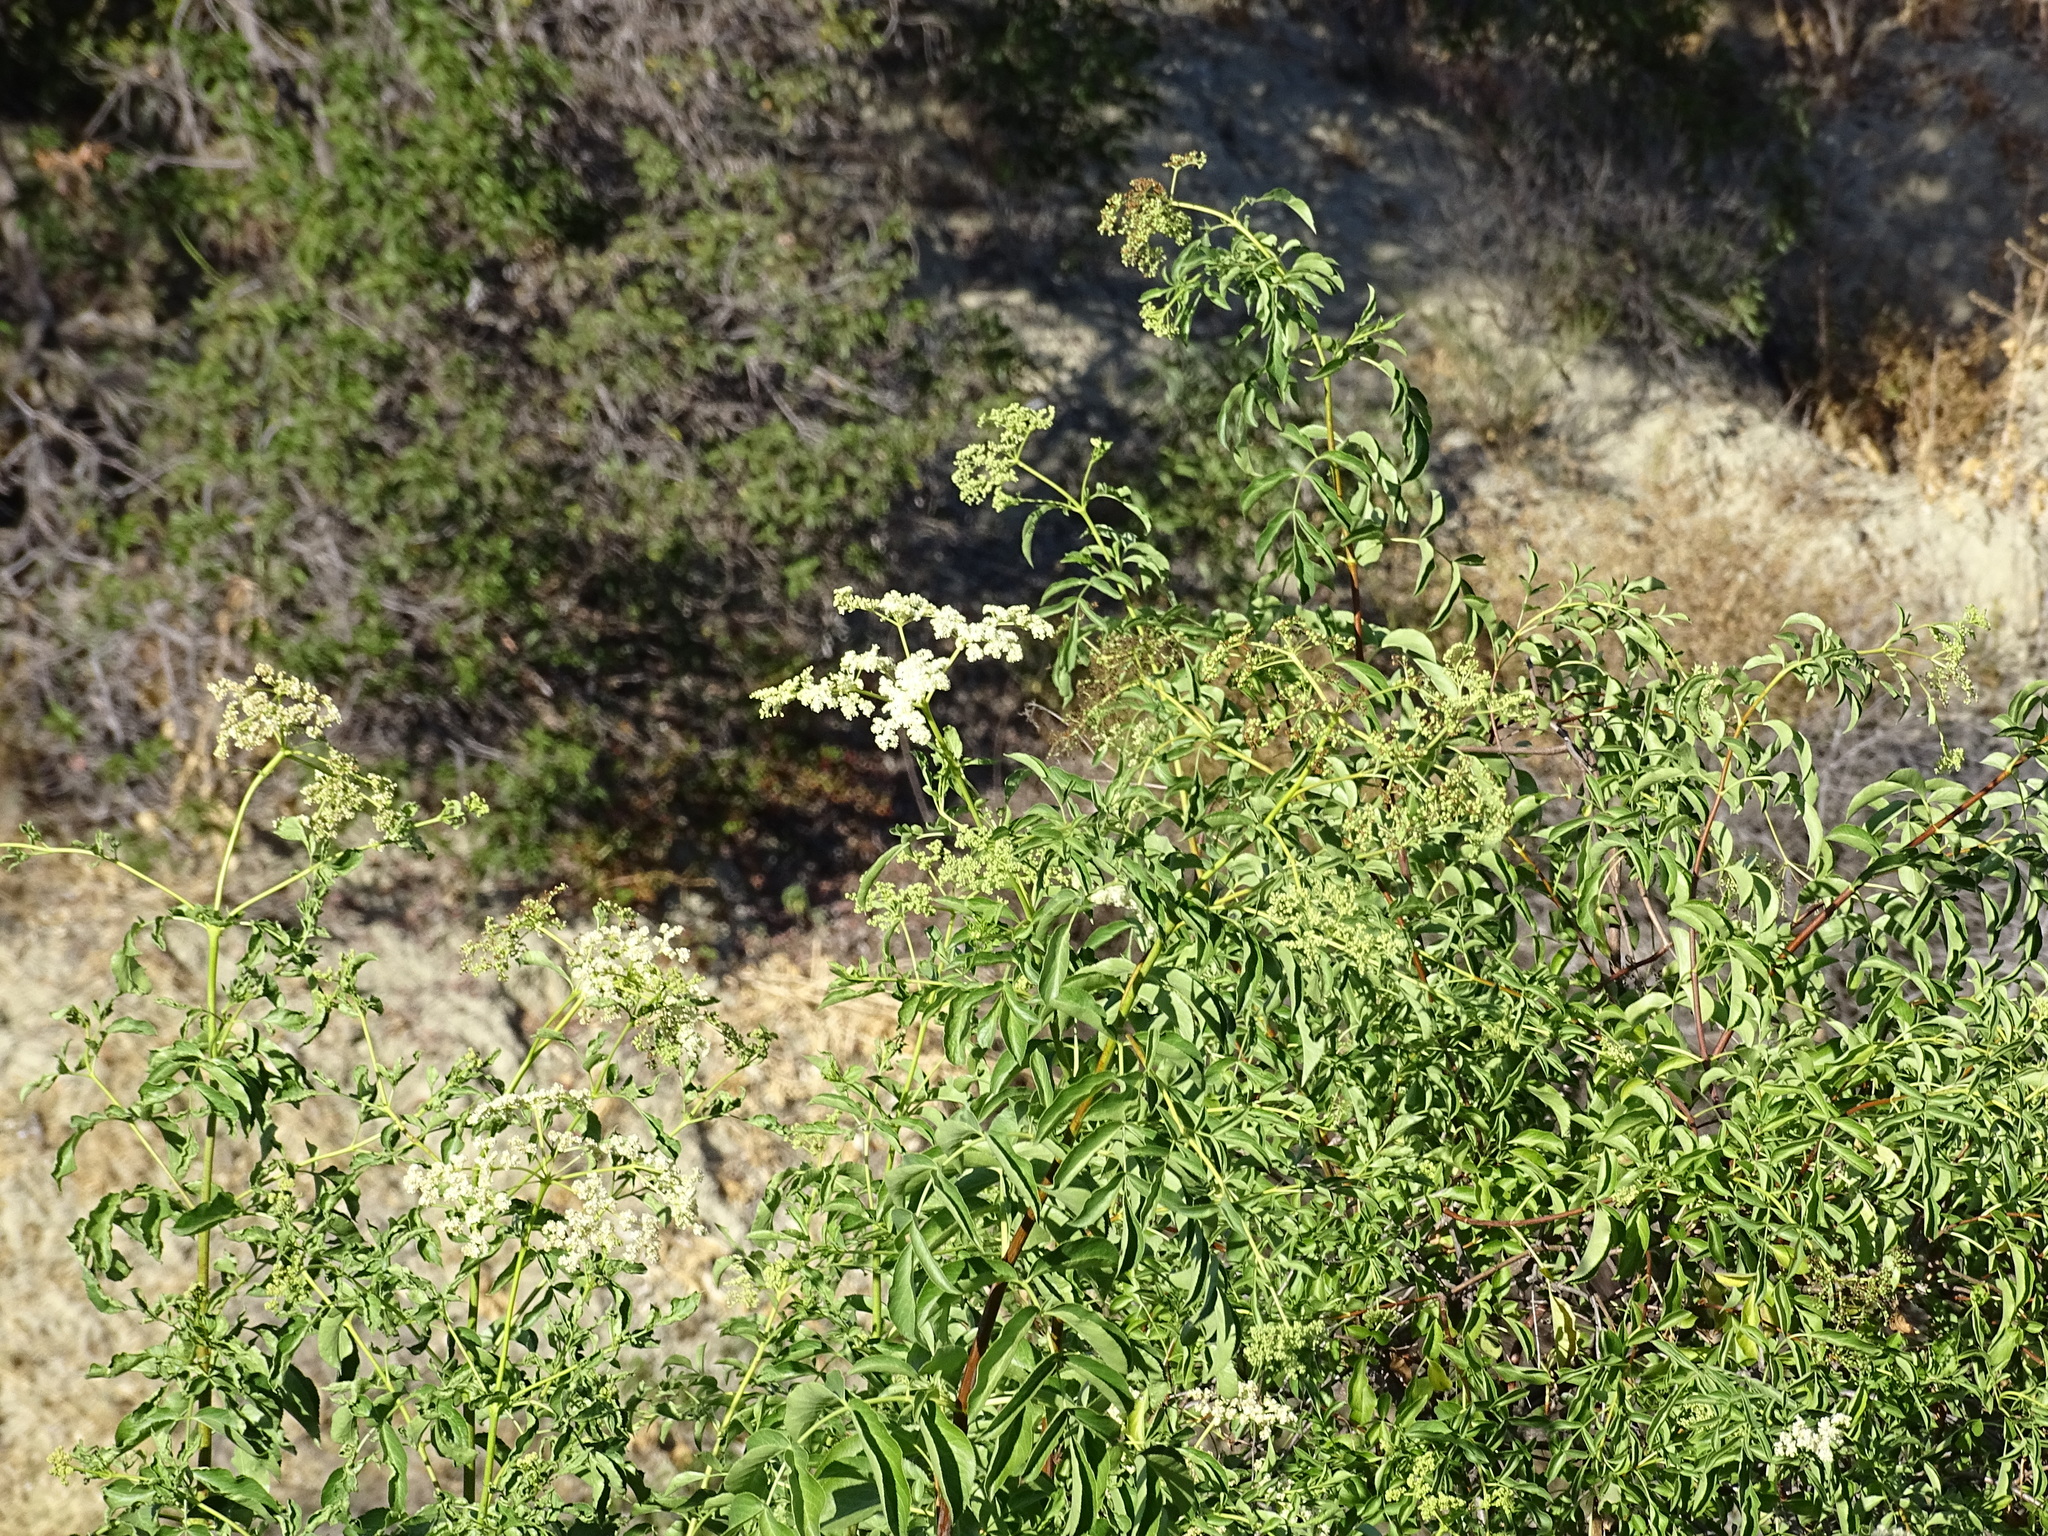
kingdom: Plantae
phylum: Tracheophyta
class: Magnoliopsida
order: Dipsacales
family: Viburnaceae
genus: Sambucus
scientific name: Sambucus cerulea
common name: Blue elder
